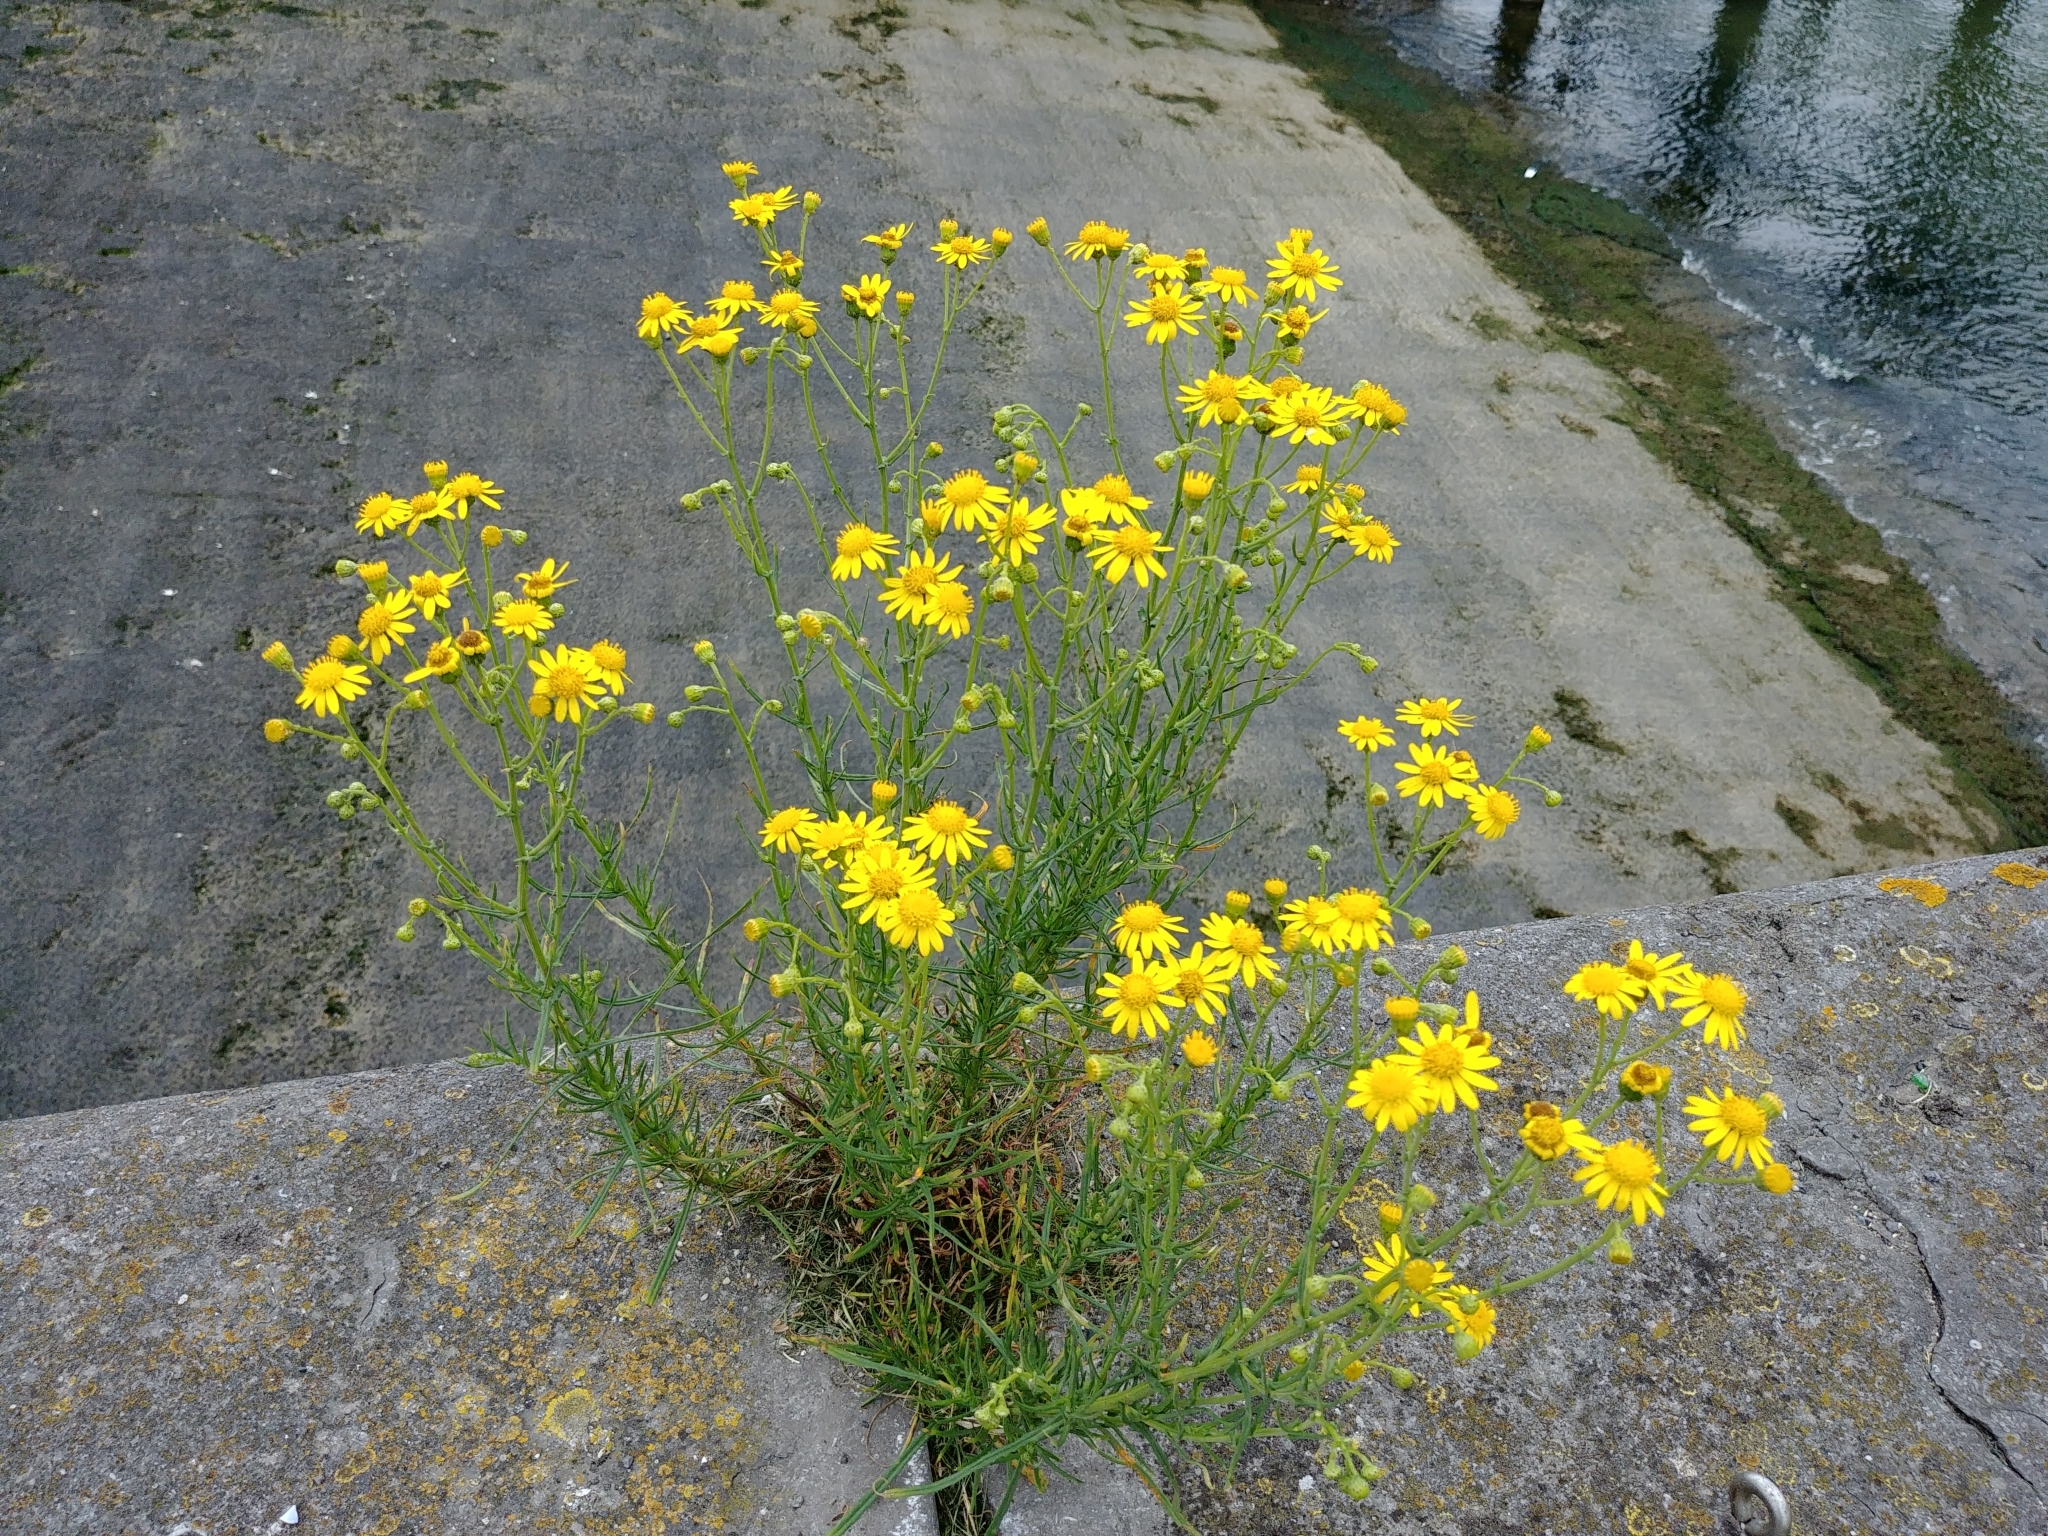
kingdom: Plantae
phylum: Tracheophyta
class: Magnoliopsida
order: Asterales
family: Asteraceae
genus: Senecio
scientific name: Senecio inaequidens
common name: Narrow-leaved ragwort
